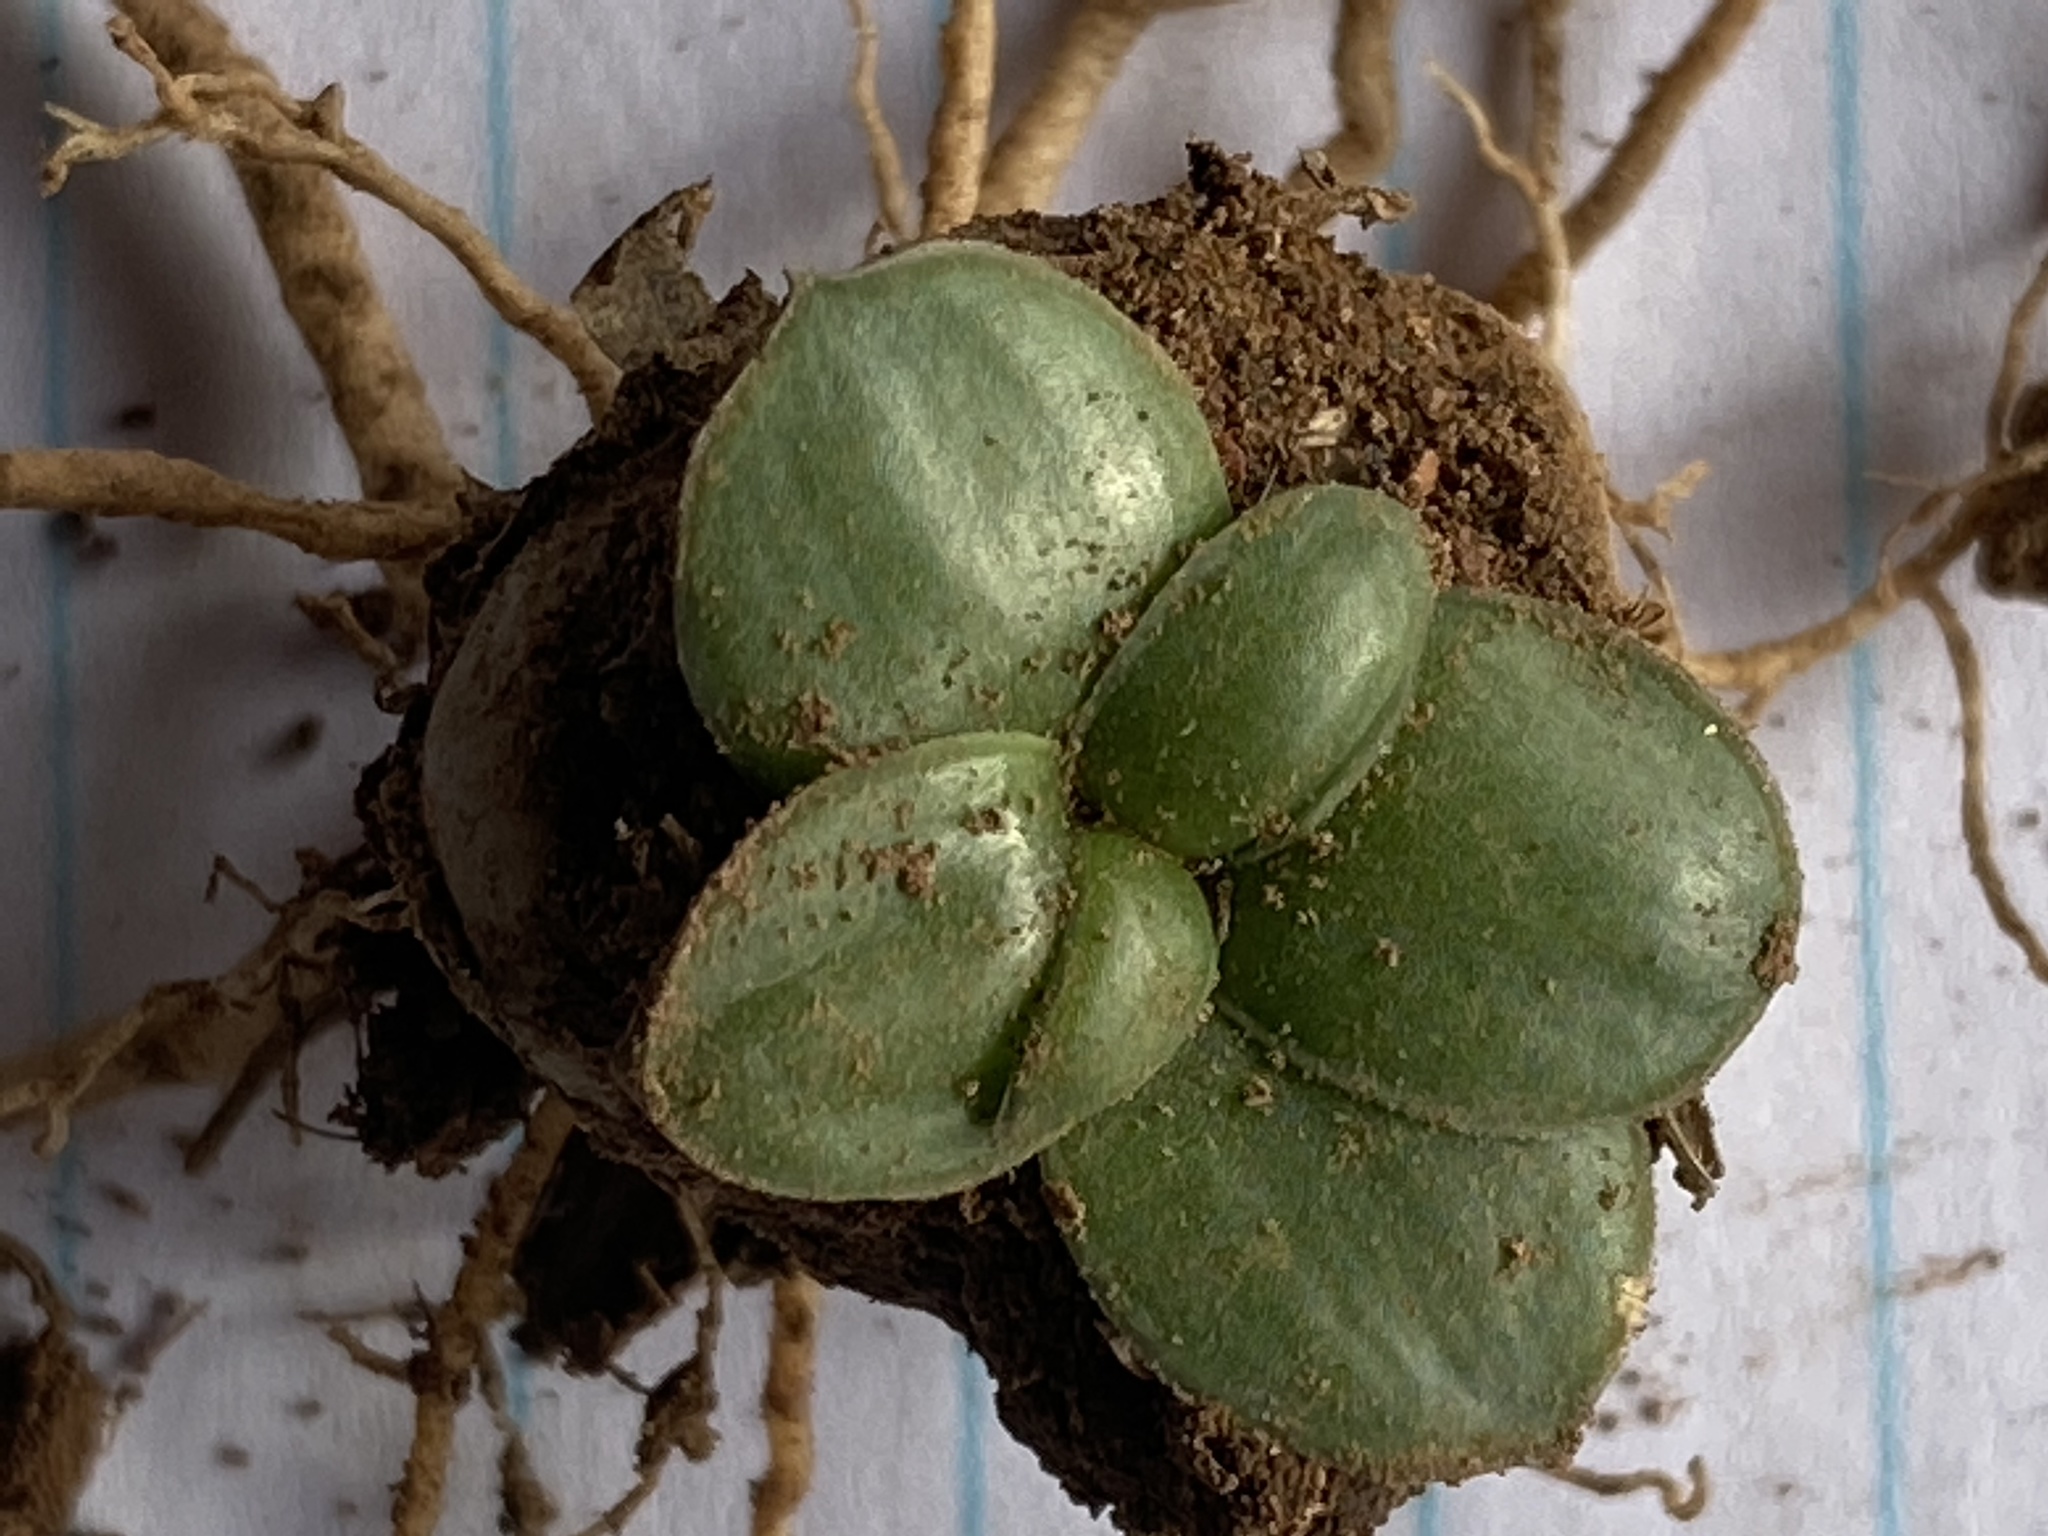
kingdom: Plantae
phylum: Tracheophyta
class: Liliopsida
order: Asparagales
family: Asparagaceae
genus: Drimia
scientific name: Drimia ciliata
